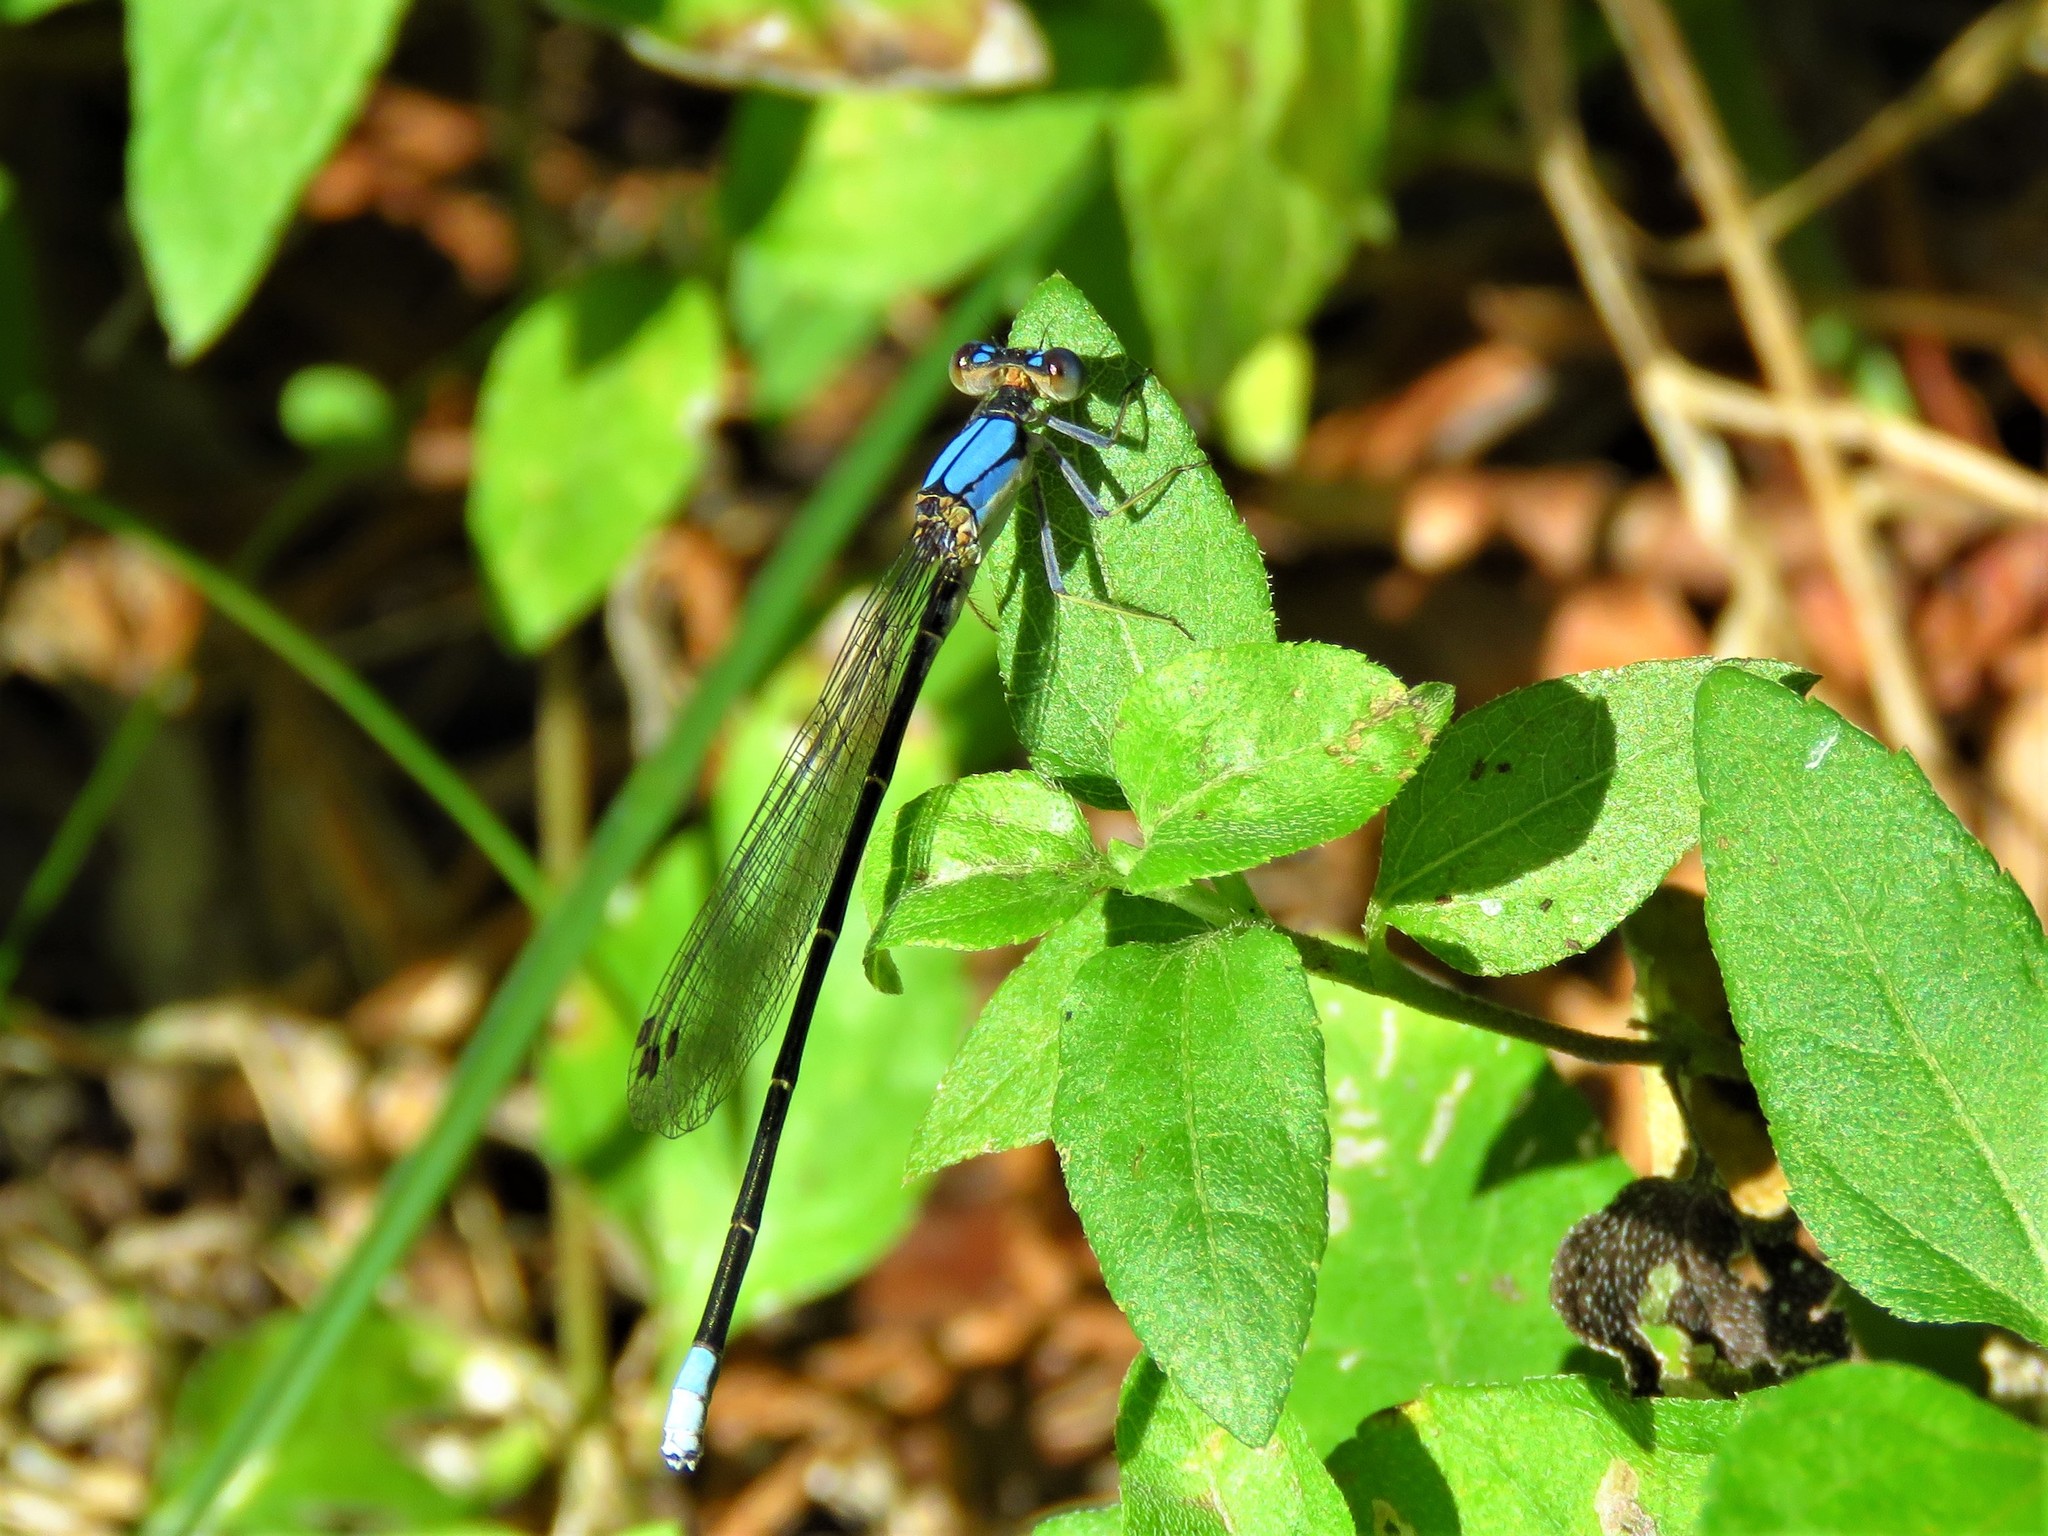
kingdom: Animalia
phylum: Arthropoda
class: Insecta
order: Odonata
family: Coenagrionidae
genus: Argia
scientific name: Argia apicalis
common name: Blue-fronted dancer
